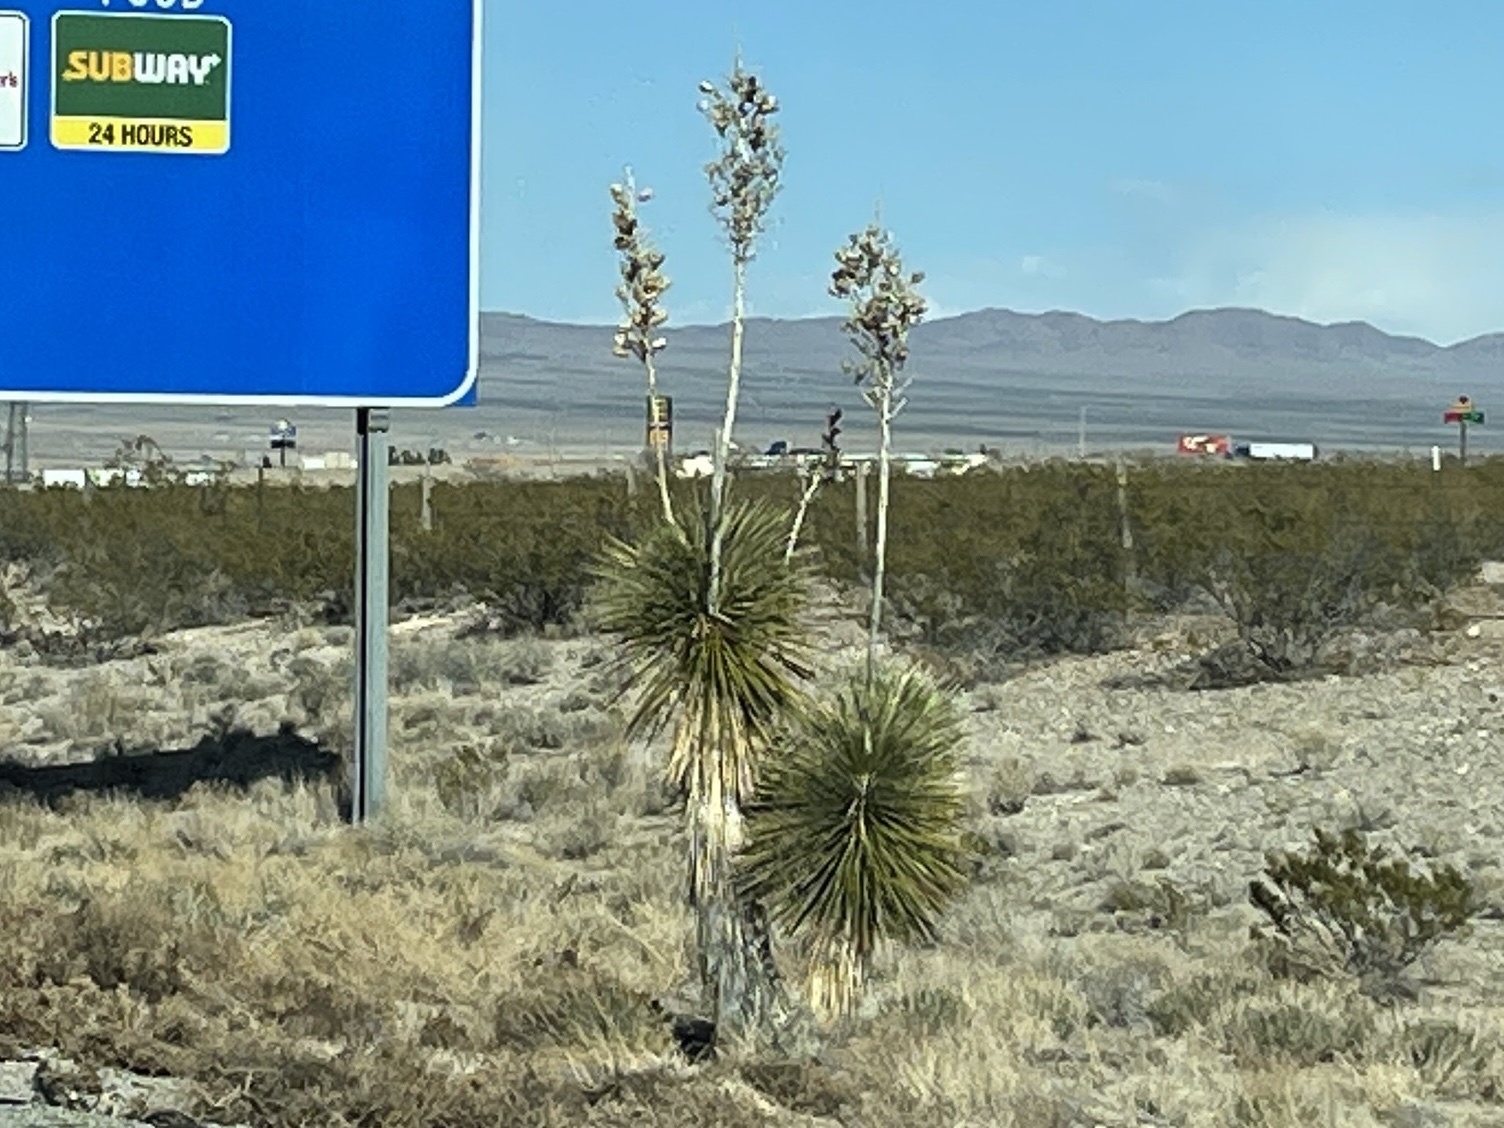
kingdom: Plantae
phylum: Tracheophyta
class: Liliopsida
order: Asparagales
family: Asparagaceae
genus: Yucca
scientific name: Yucca elata
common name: Palmella
